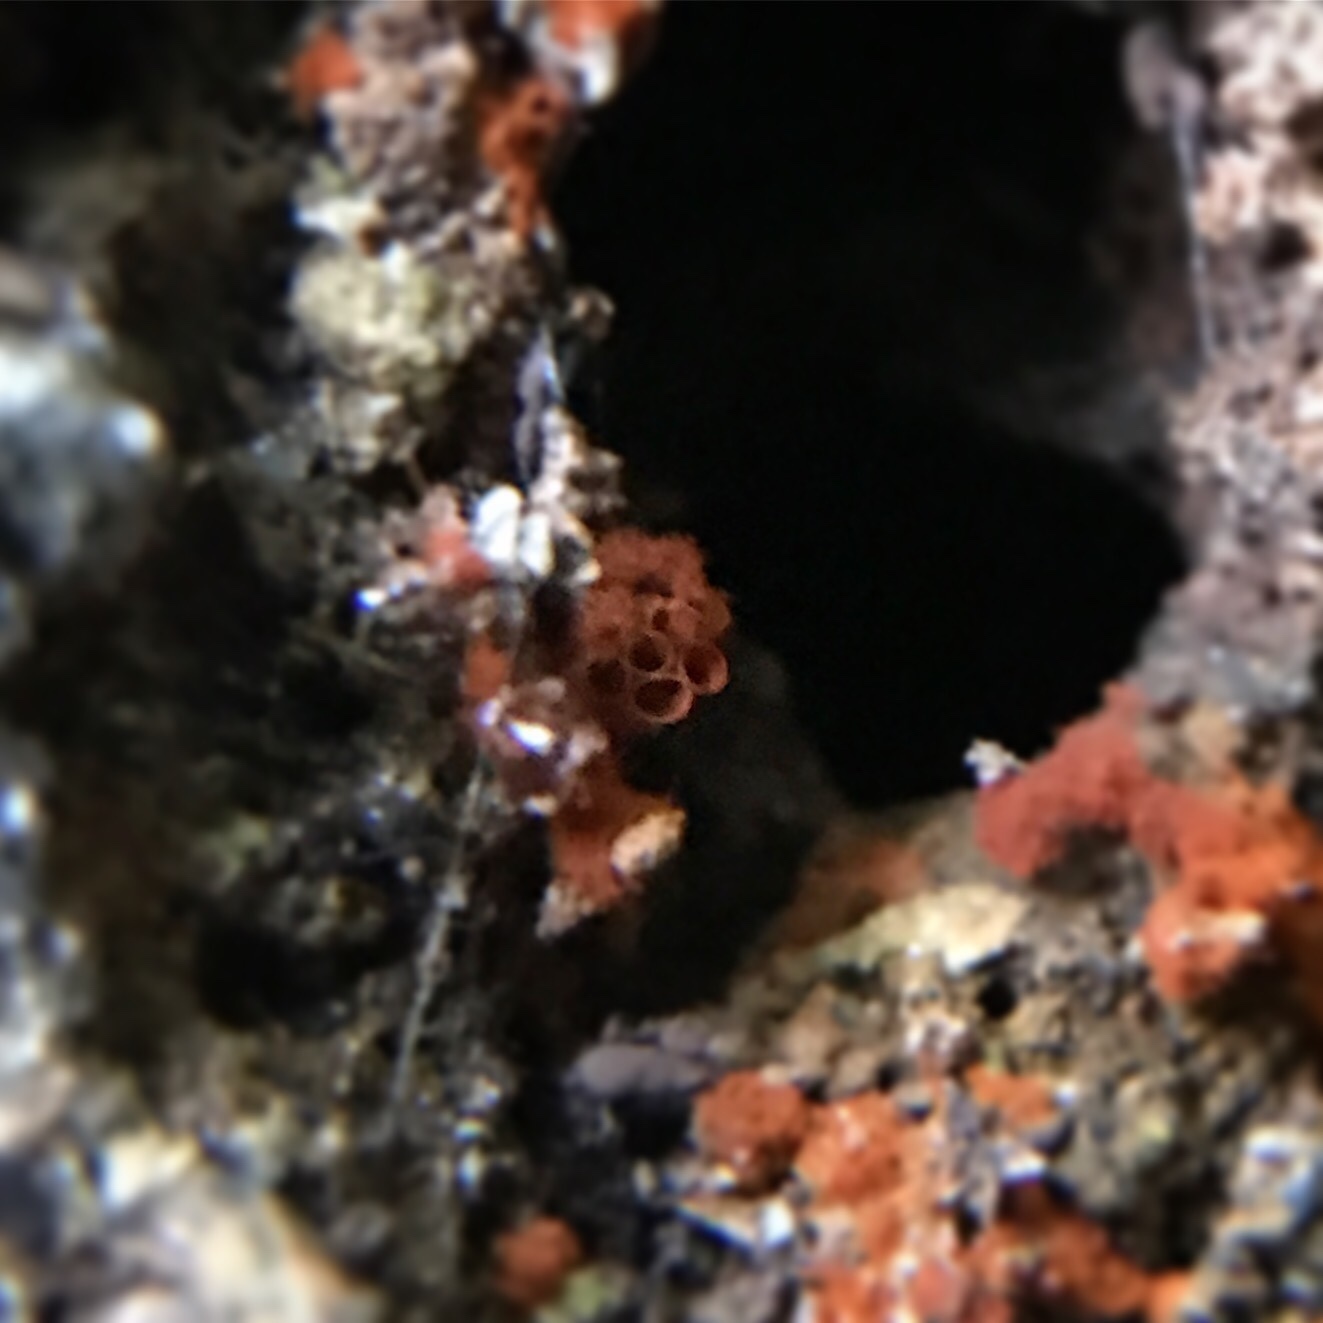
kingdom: Protozoa
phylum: Mycetozoa
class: Myxomycetes
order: Trichiales
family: Trichiaceae
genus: Metatrichia
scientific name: Metatrichia vesparia
